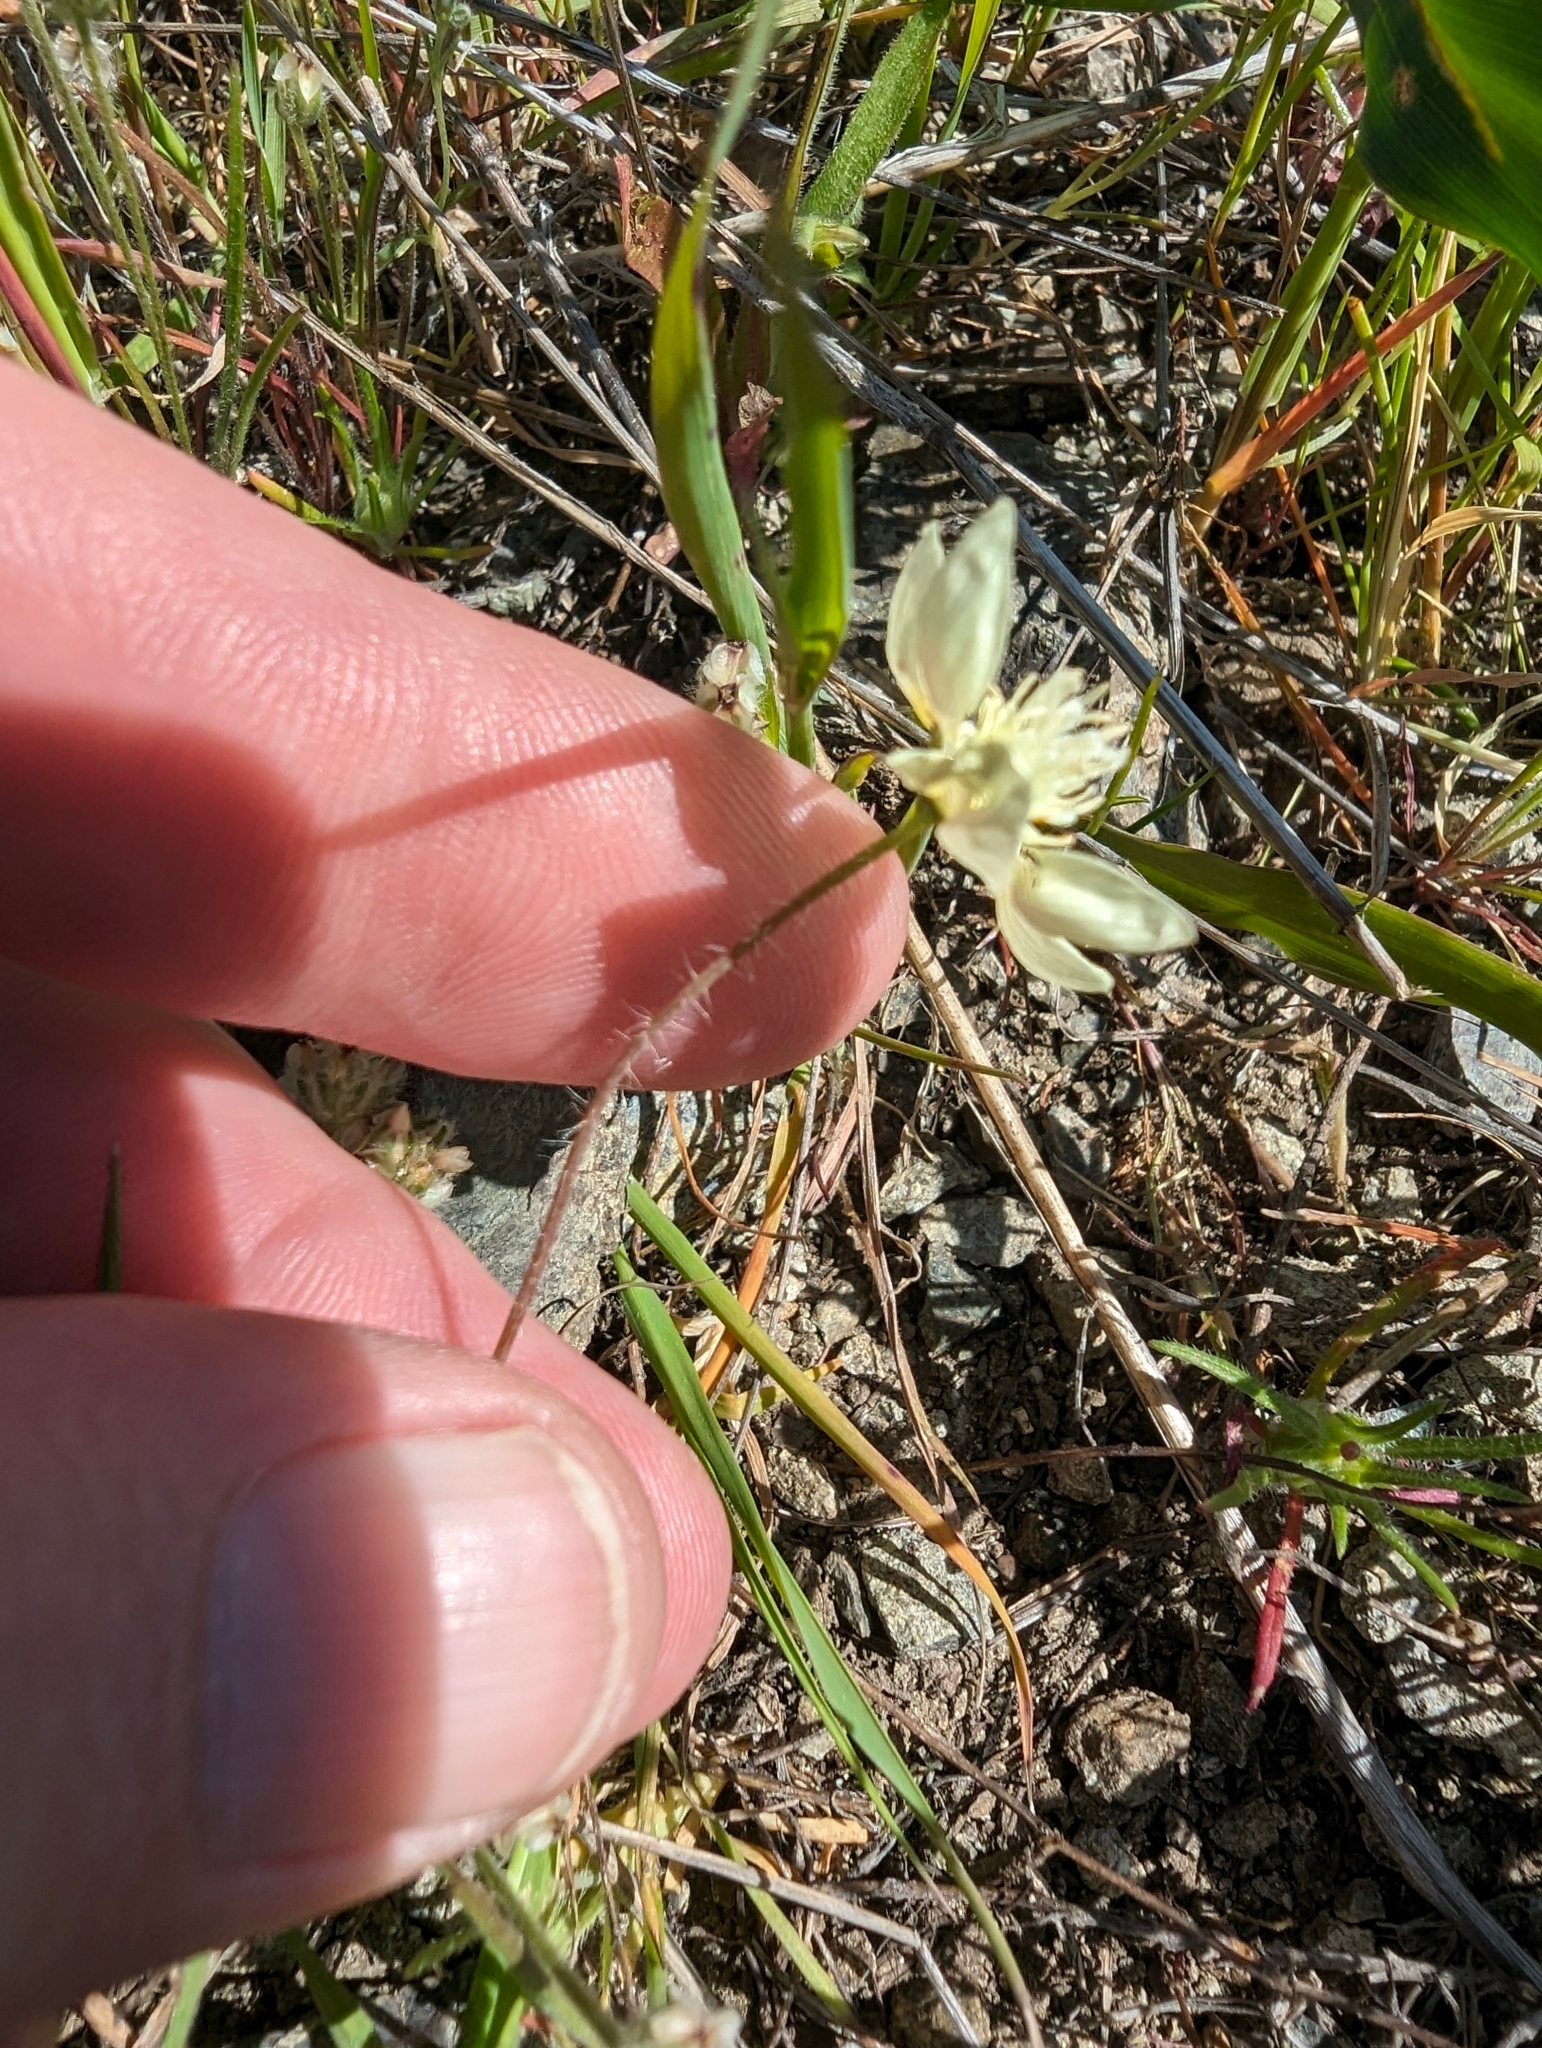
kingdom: Plantae
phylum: Tracheophyta
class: Magnoliopsida
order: Ranunculales
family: Papaveraceae
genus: Platystemon
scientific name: Platystemon californicus
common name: Cream-cups
